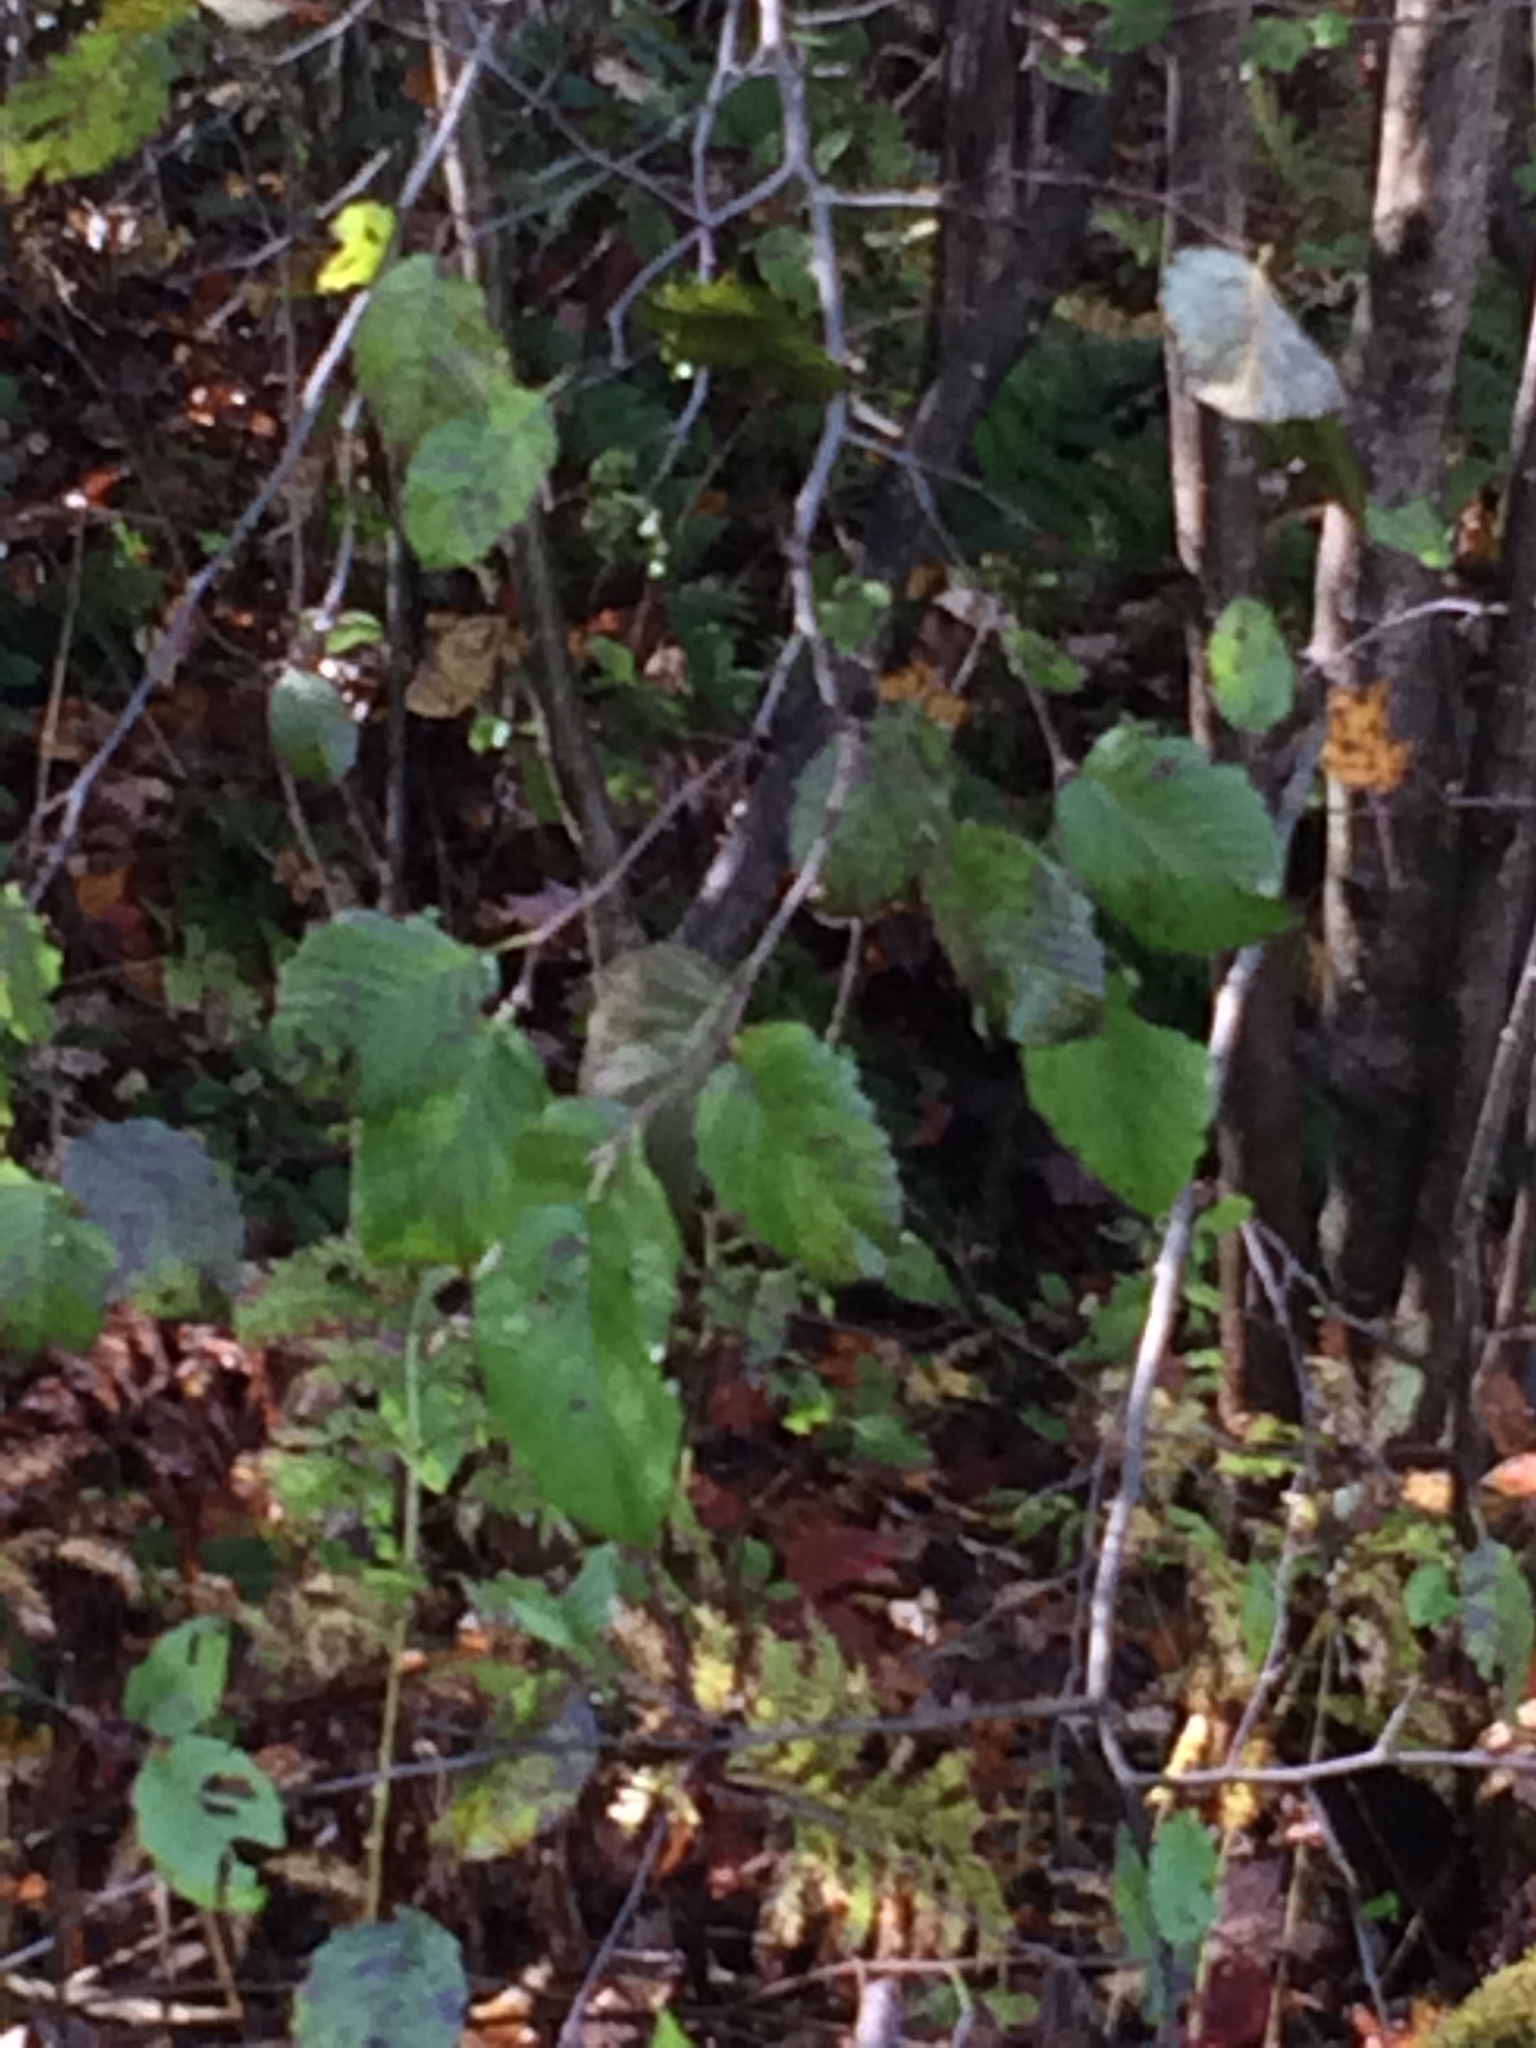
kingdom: Plantae
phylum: Tracheophyta
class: Magnoliopsida
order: Fagales
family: Betulaceae
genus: Alnus
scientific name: Alnus incana
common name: Grey alder
